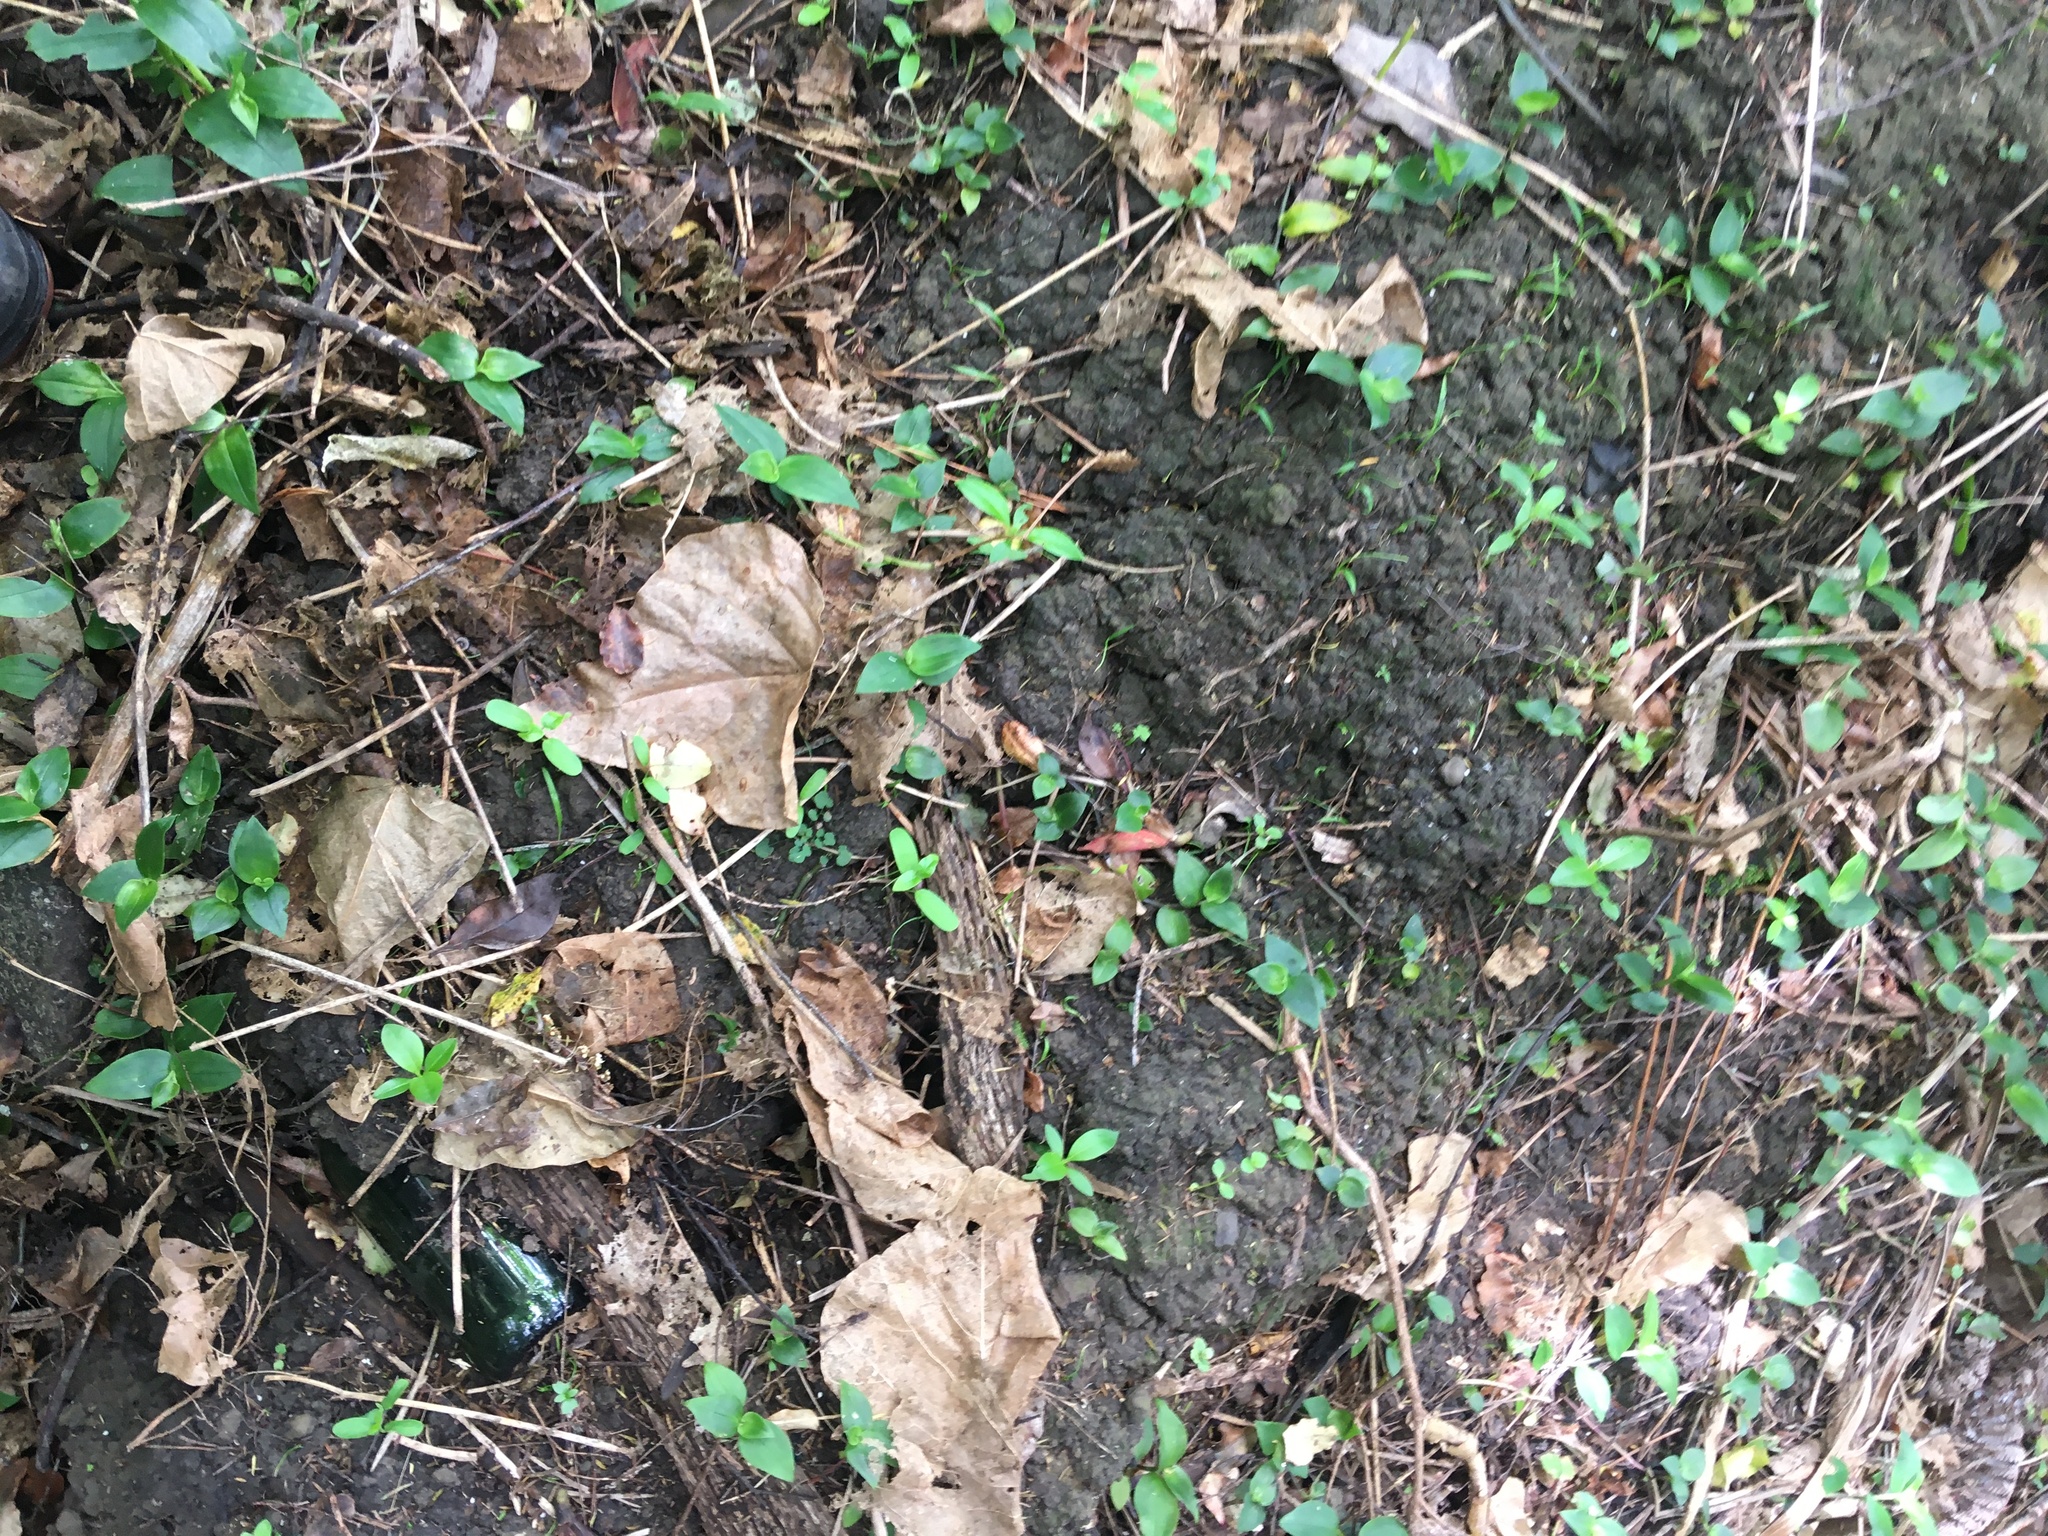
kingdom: Plantae
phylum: Tracheophyta
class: Magnoliopsida
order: Gentianales
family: Rubiaceae
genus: Coprosma
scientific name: Coprosma robusta
